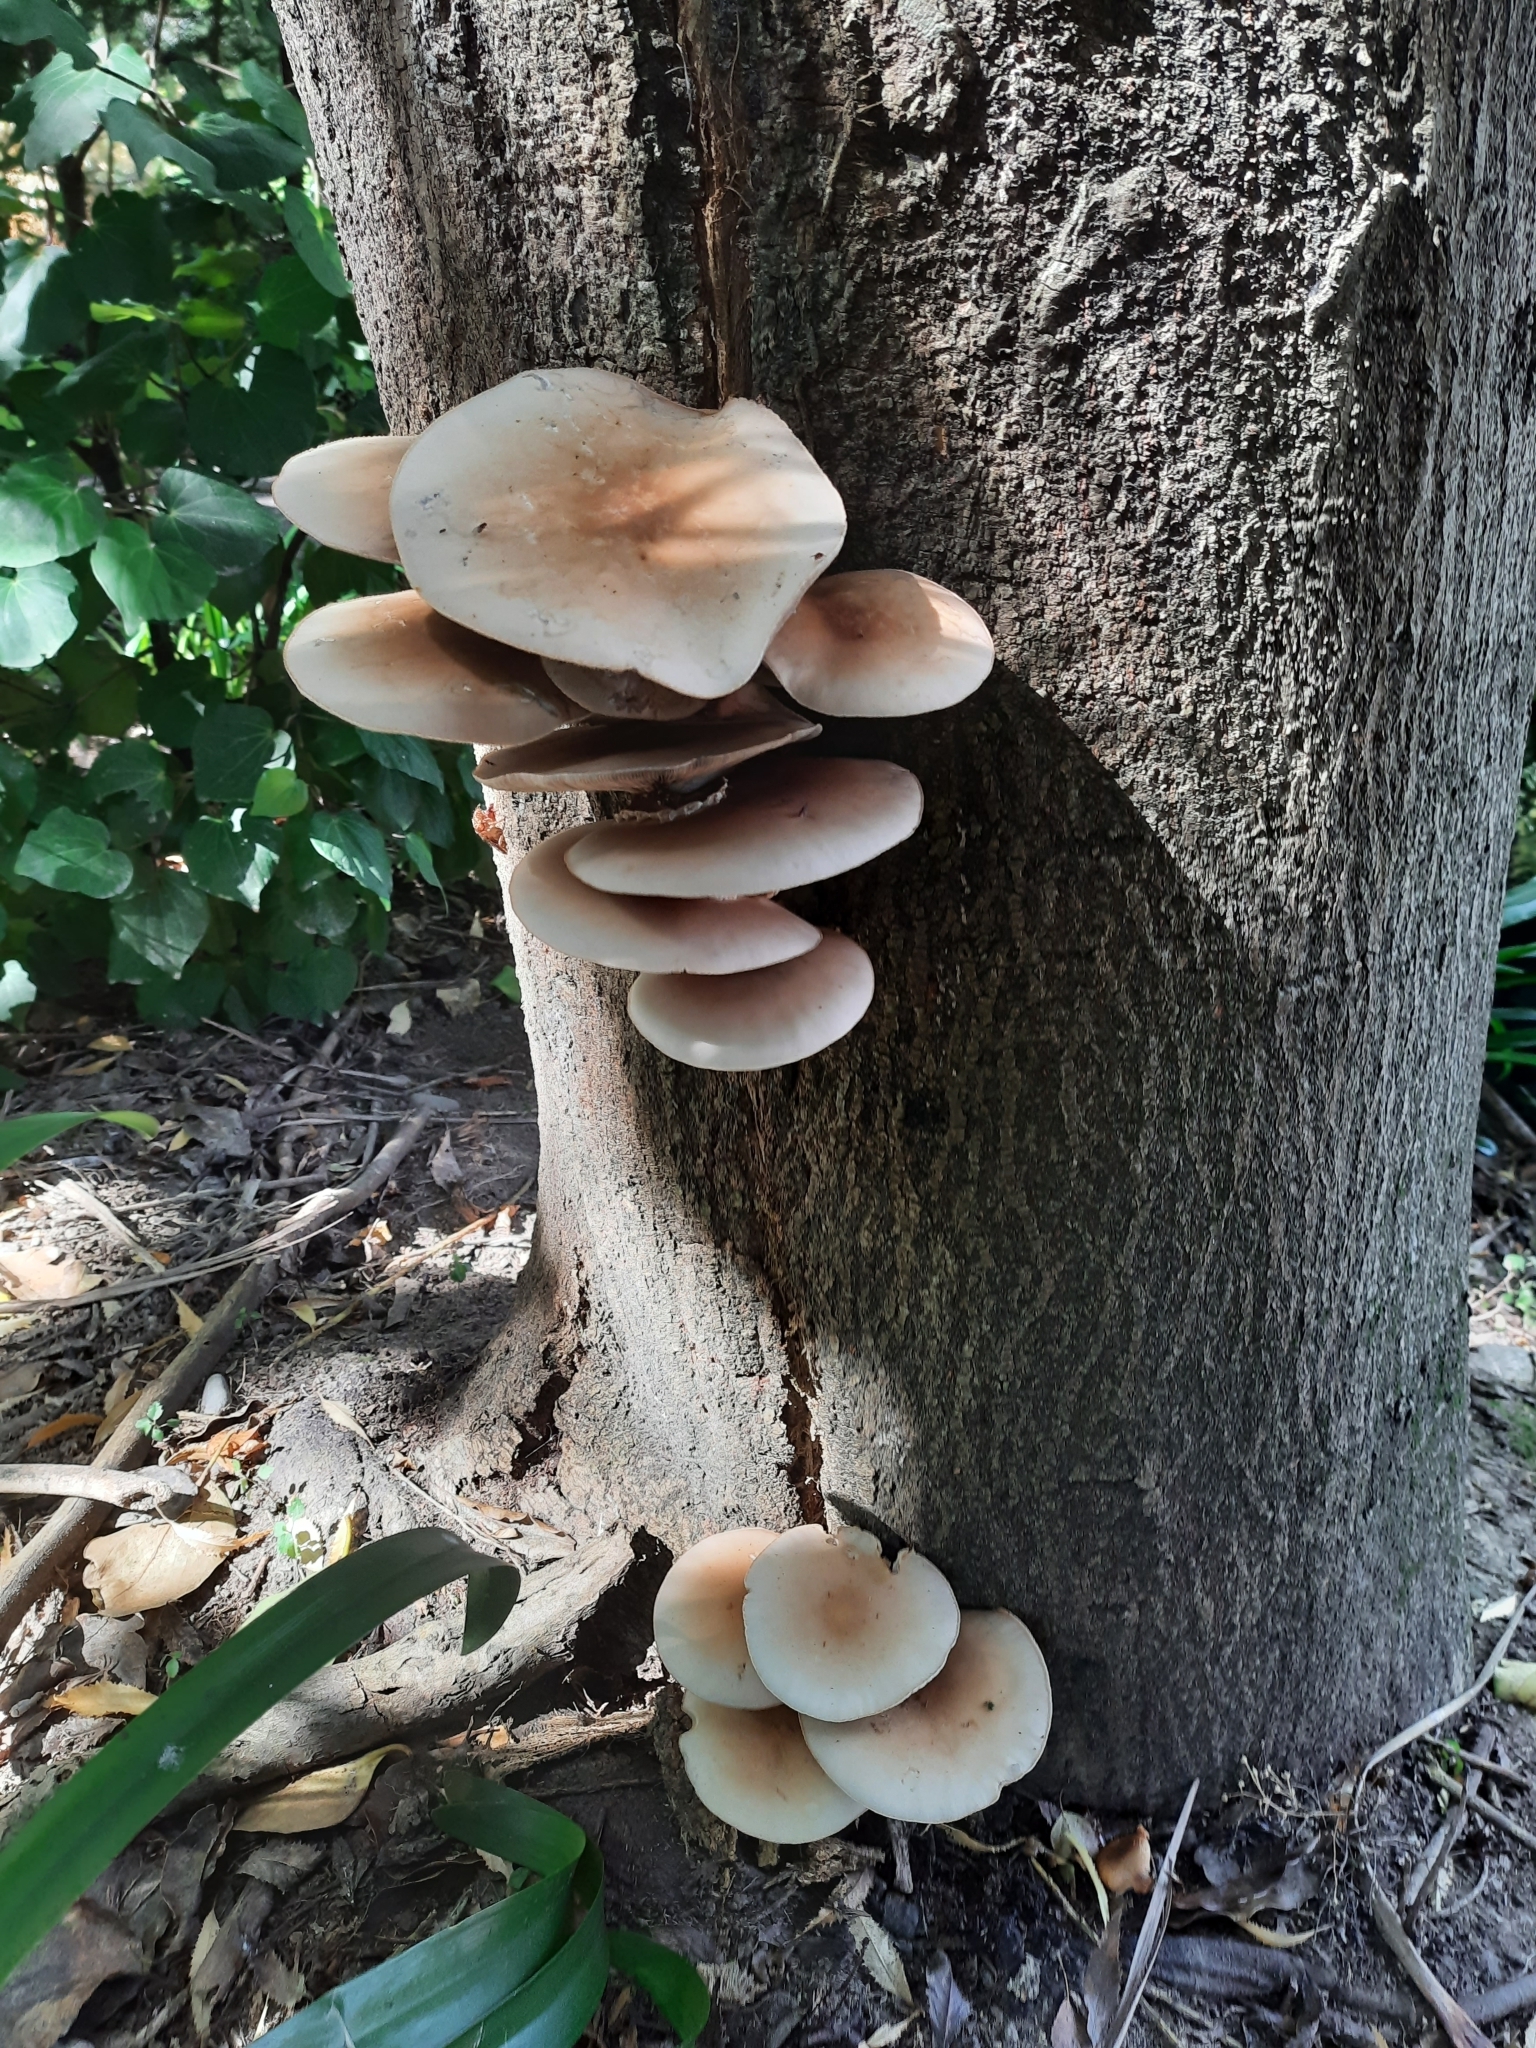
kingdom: Fungi
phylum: Basidiomycota
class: Agaricomycetes
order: Agaricales
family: Tubariaceae
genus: Cyclocybe
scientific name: Cyclocybe parasitica
